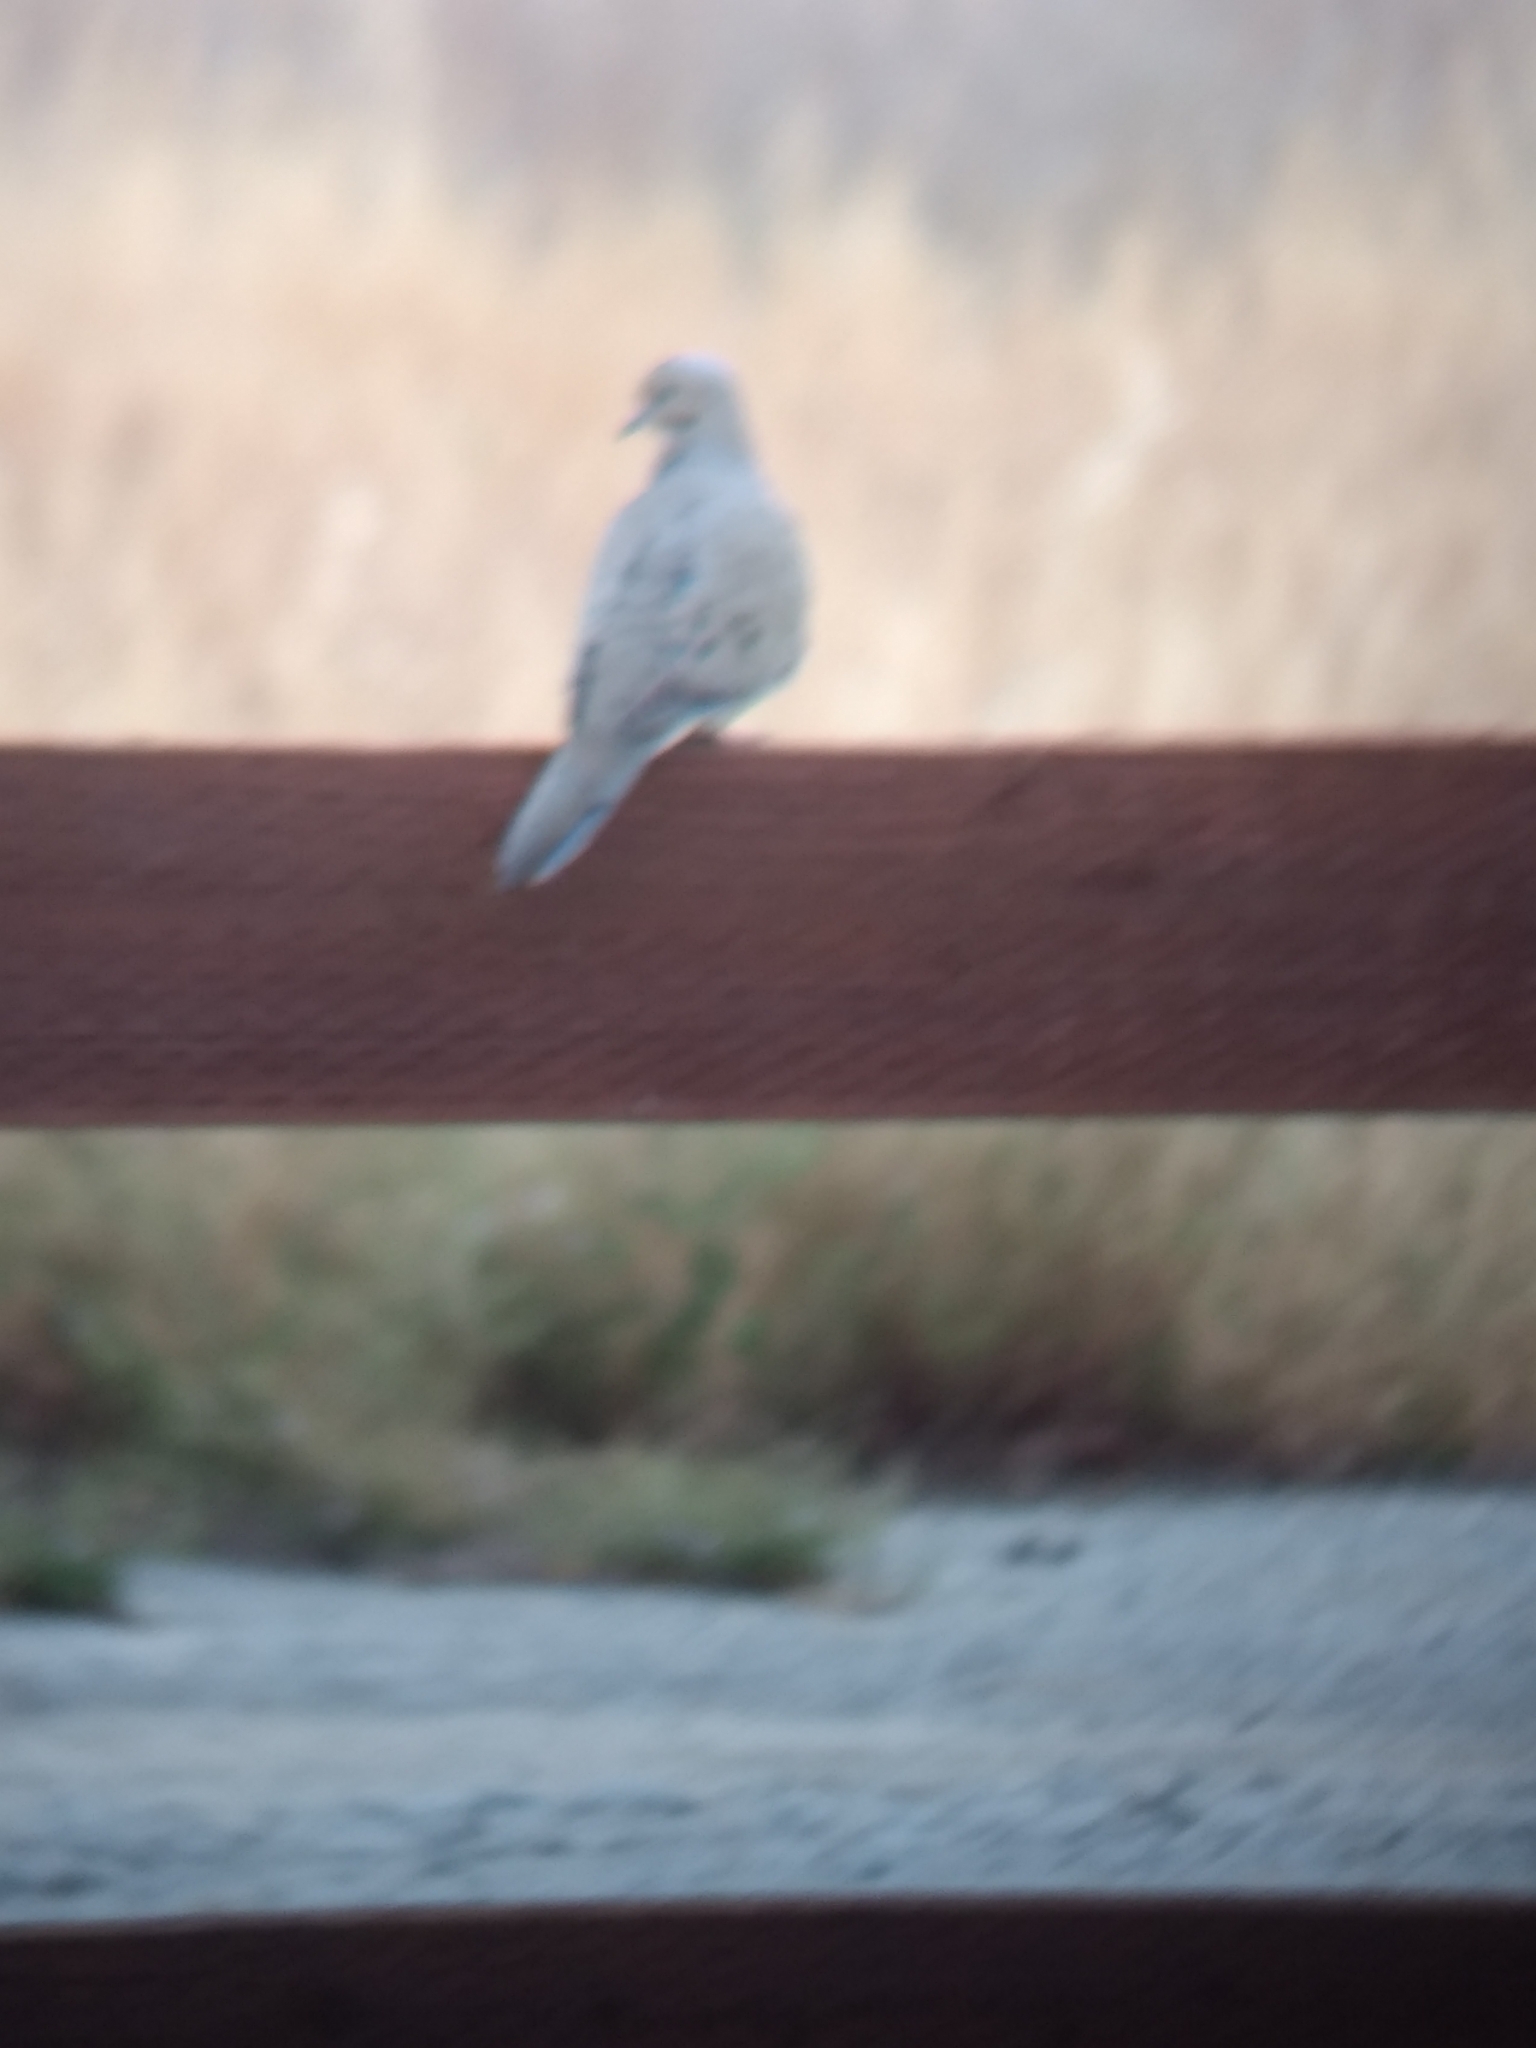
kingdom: Animalia
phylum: Chordata
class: Aves
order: Columbiformes
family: Columbidae
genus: Zenaida
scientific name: Zenaida macroura
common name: Mourning dove
